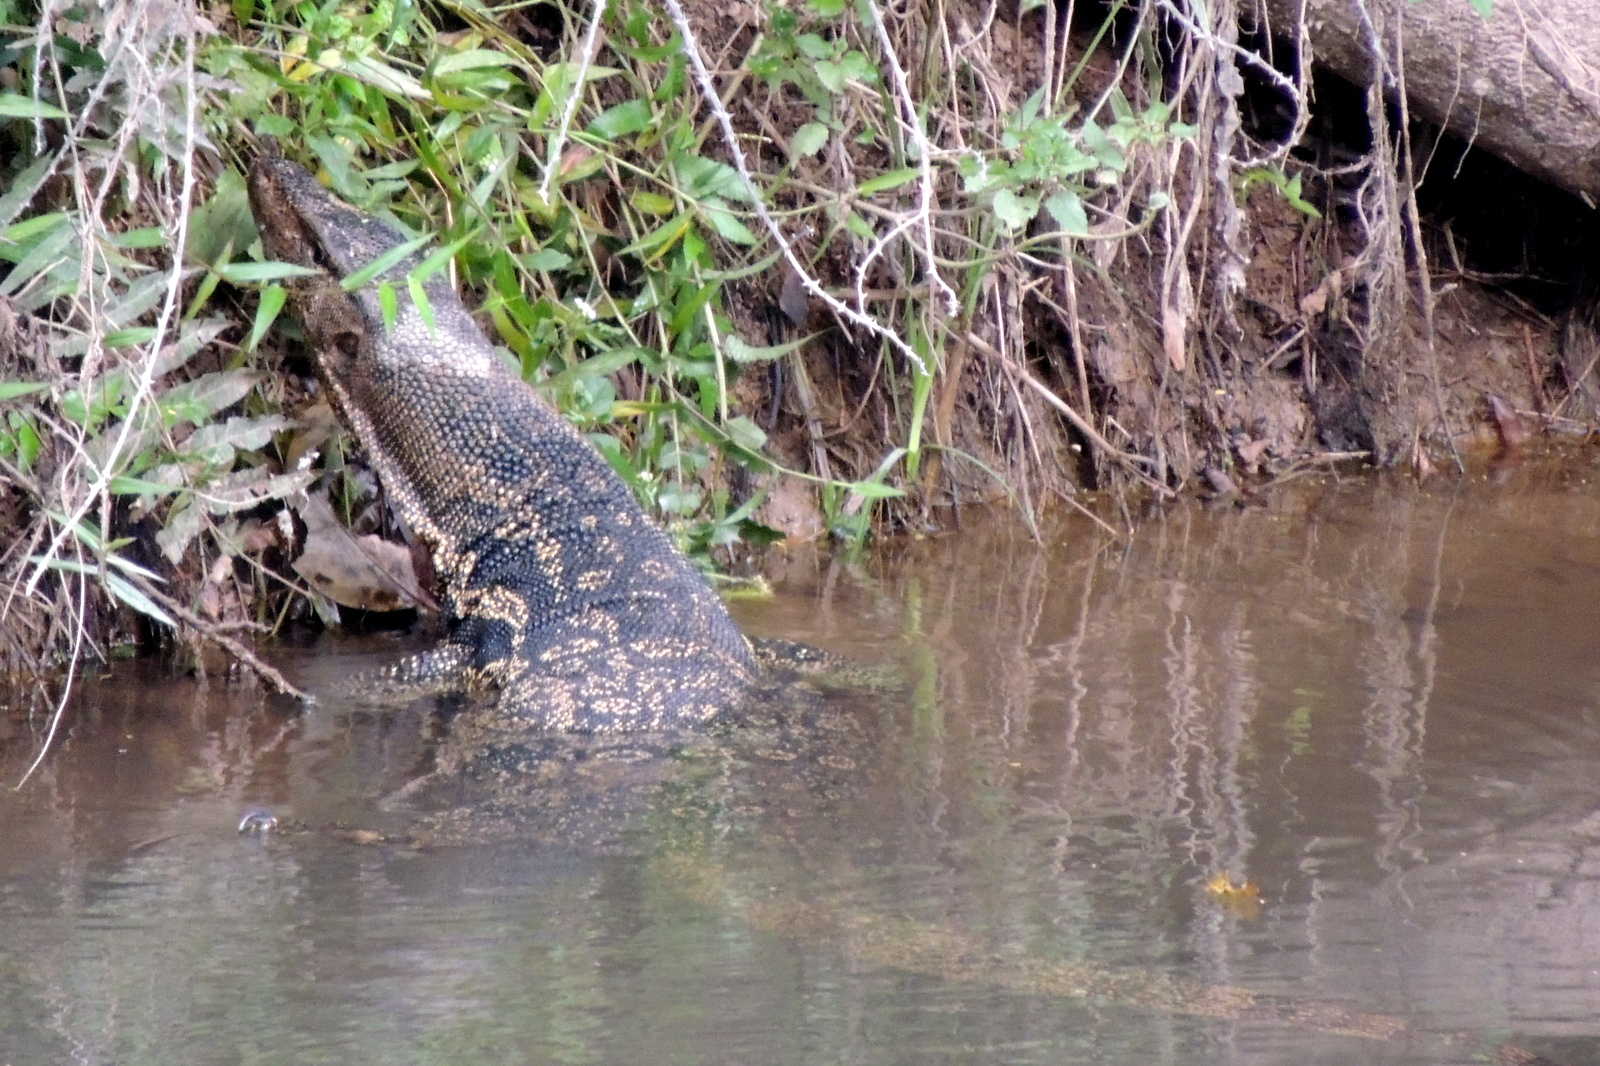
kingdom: Animalia
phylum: Chordata
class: Squamata
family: Varanidae
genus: Varanus
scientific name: Varanus salvator
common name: Common water monitor
